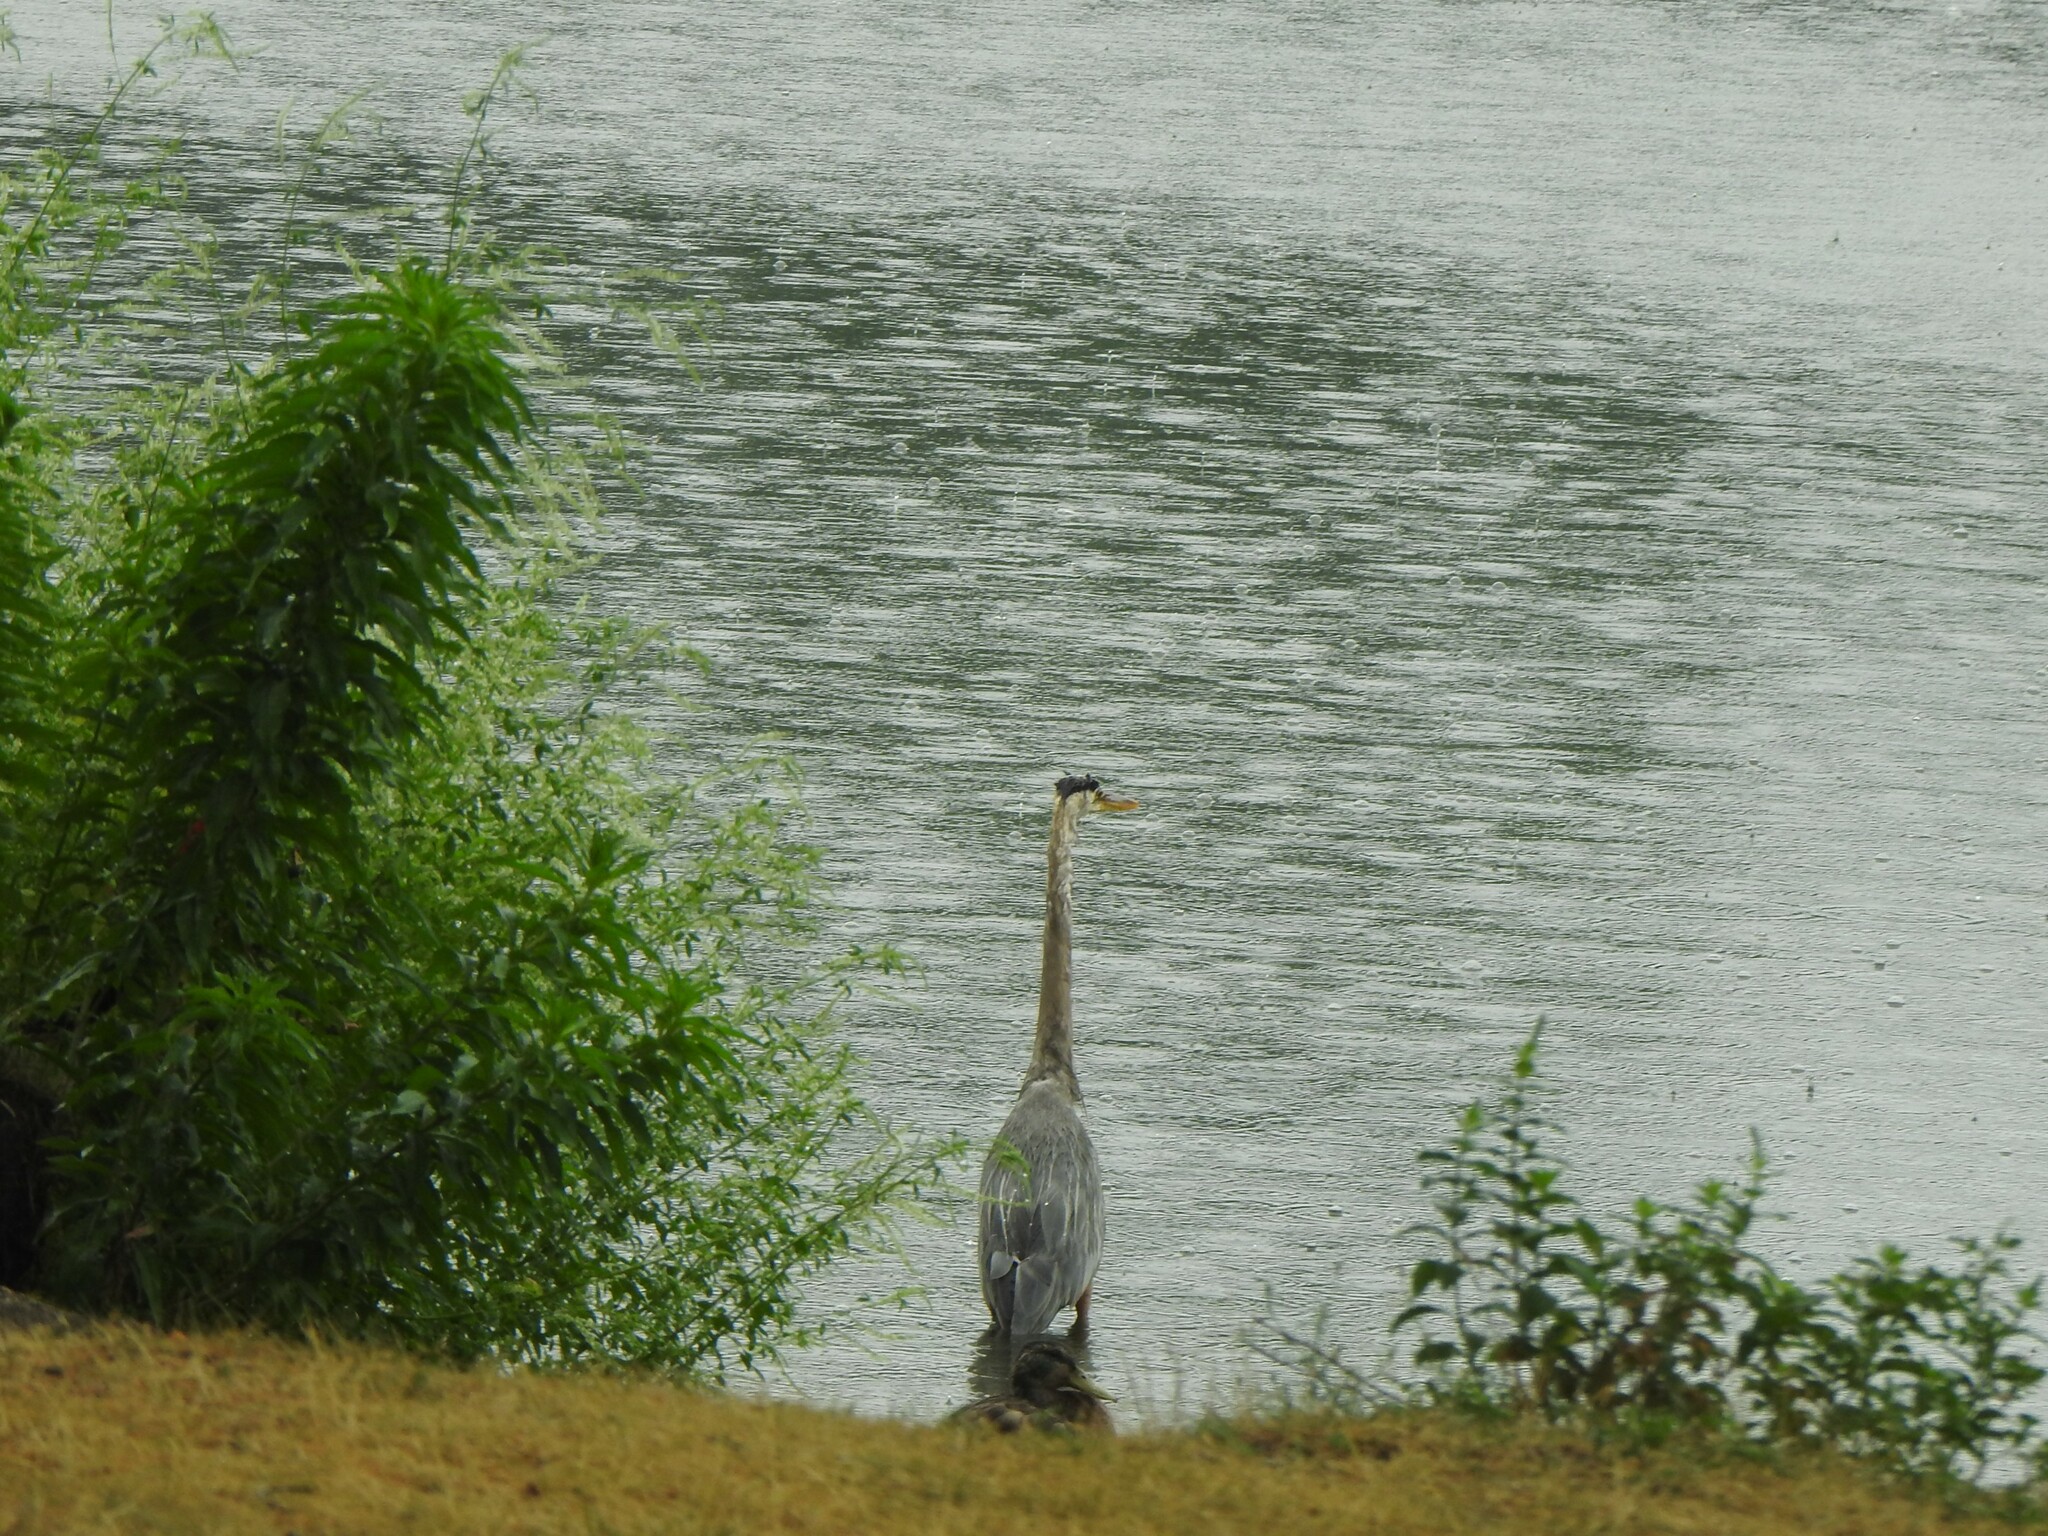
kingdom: Animalia
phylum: Chordata
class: Aves
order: Pelecaniformes
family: Ardeidae
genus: Ardea
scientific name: Ardea herodias
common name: Great blue heron
